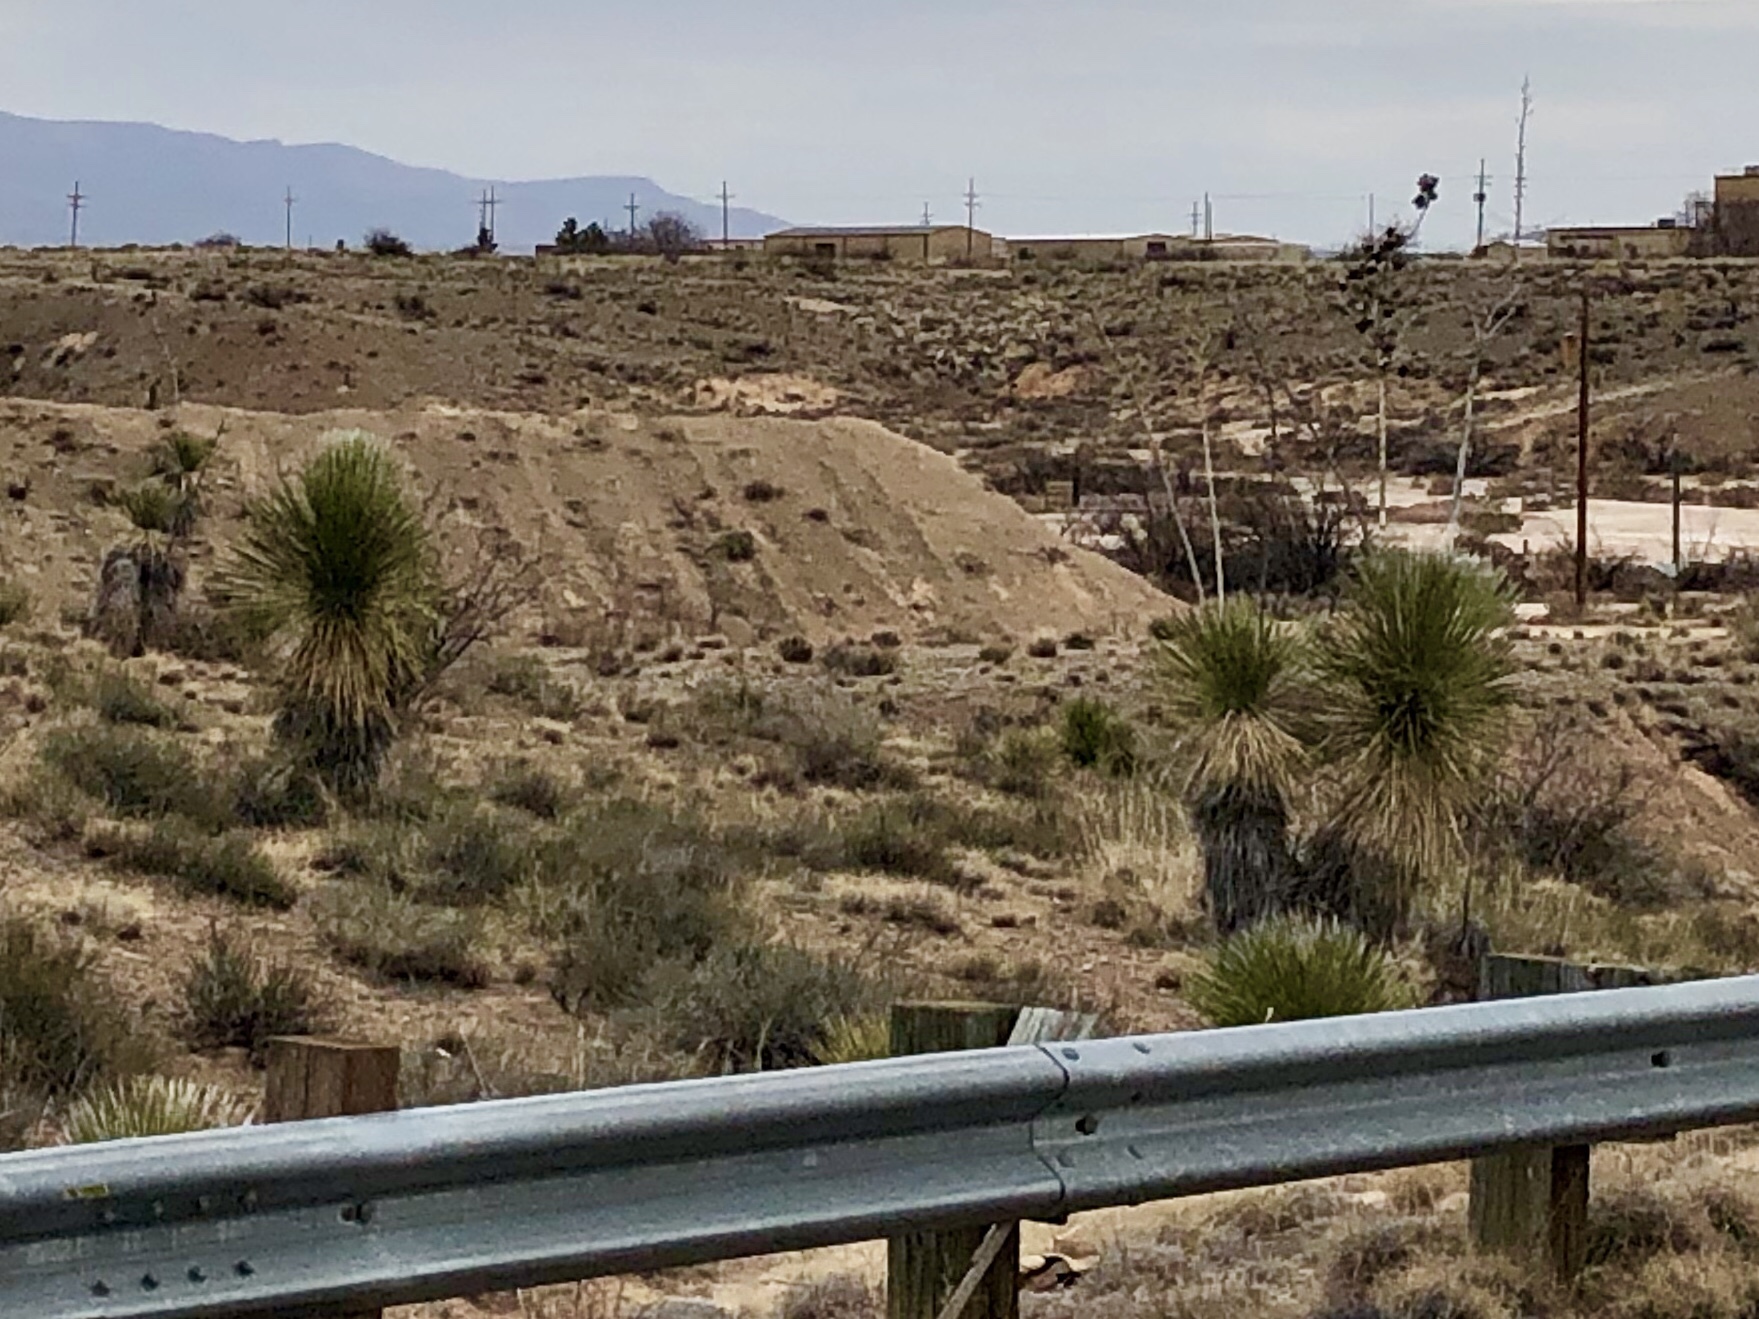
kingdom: Plantae
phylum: Tracheophyta
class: Liliopsida
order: Asparagales
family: Asparagaceae
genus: Yucca
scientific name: Yucca elata
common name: Palmella
